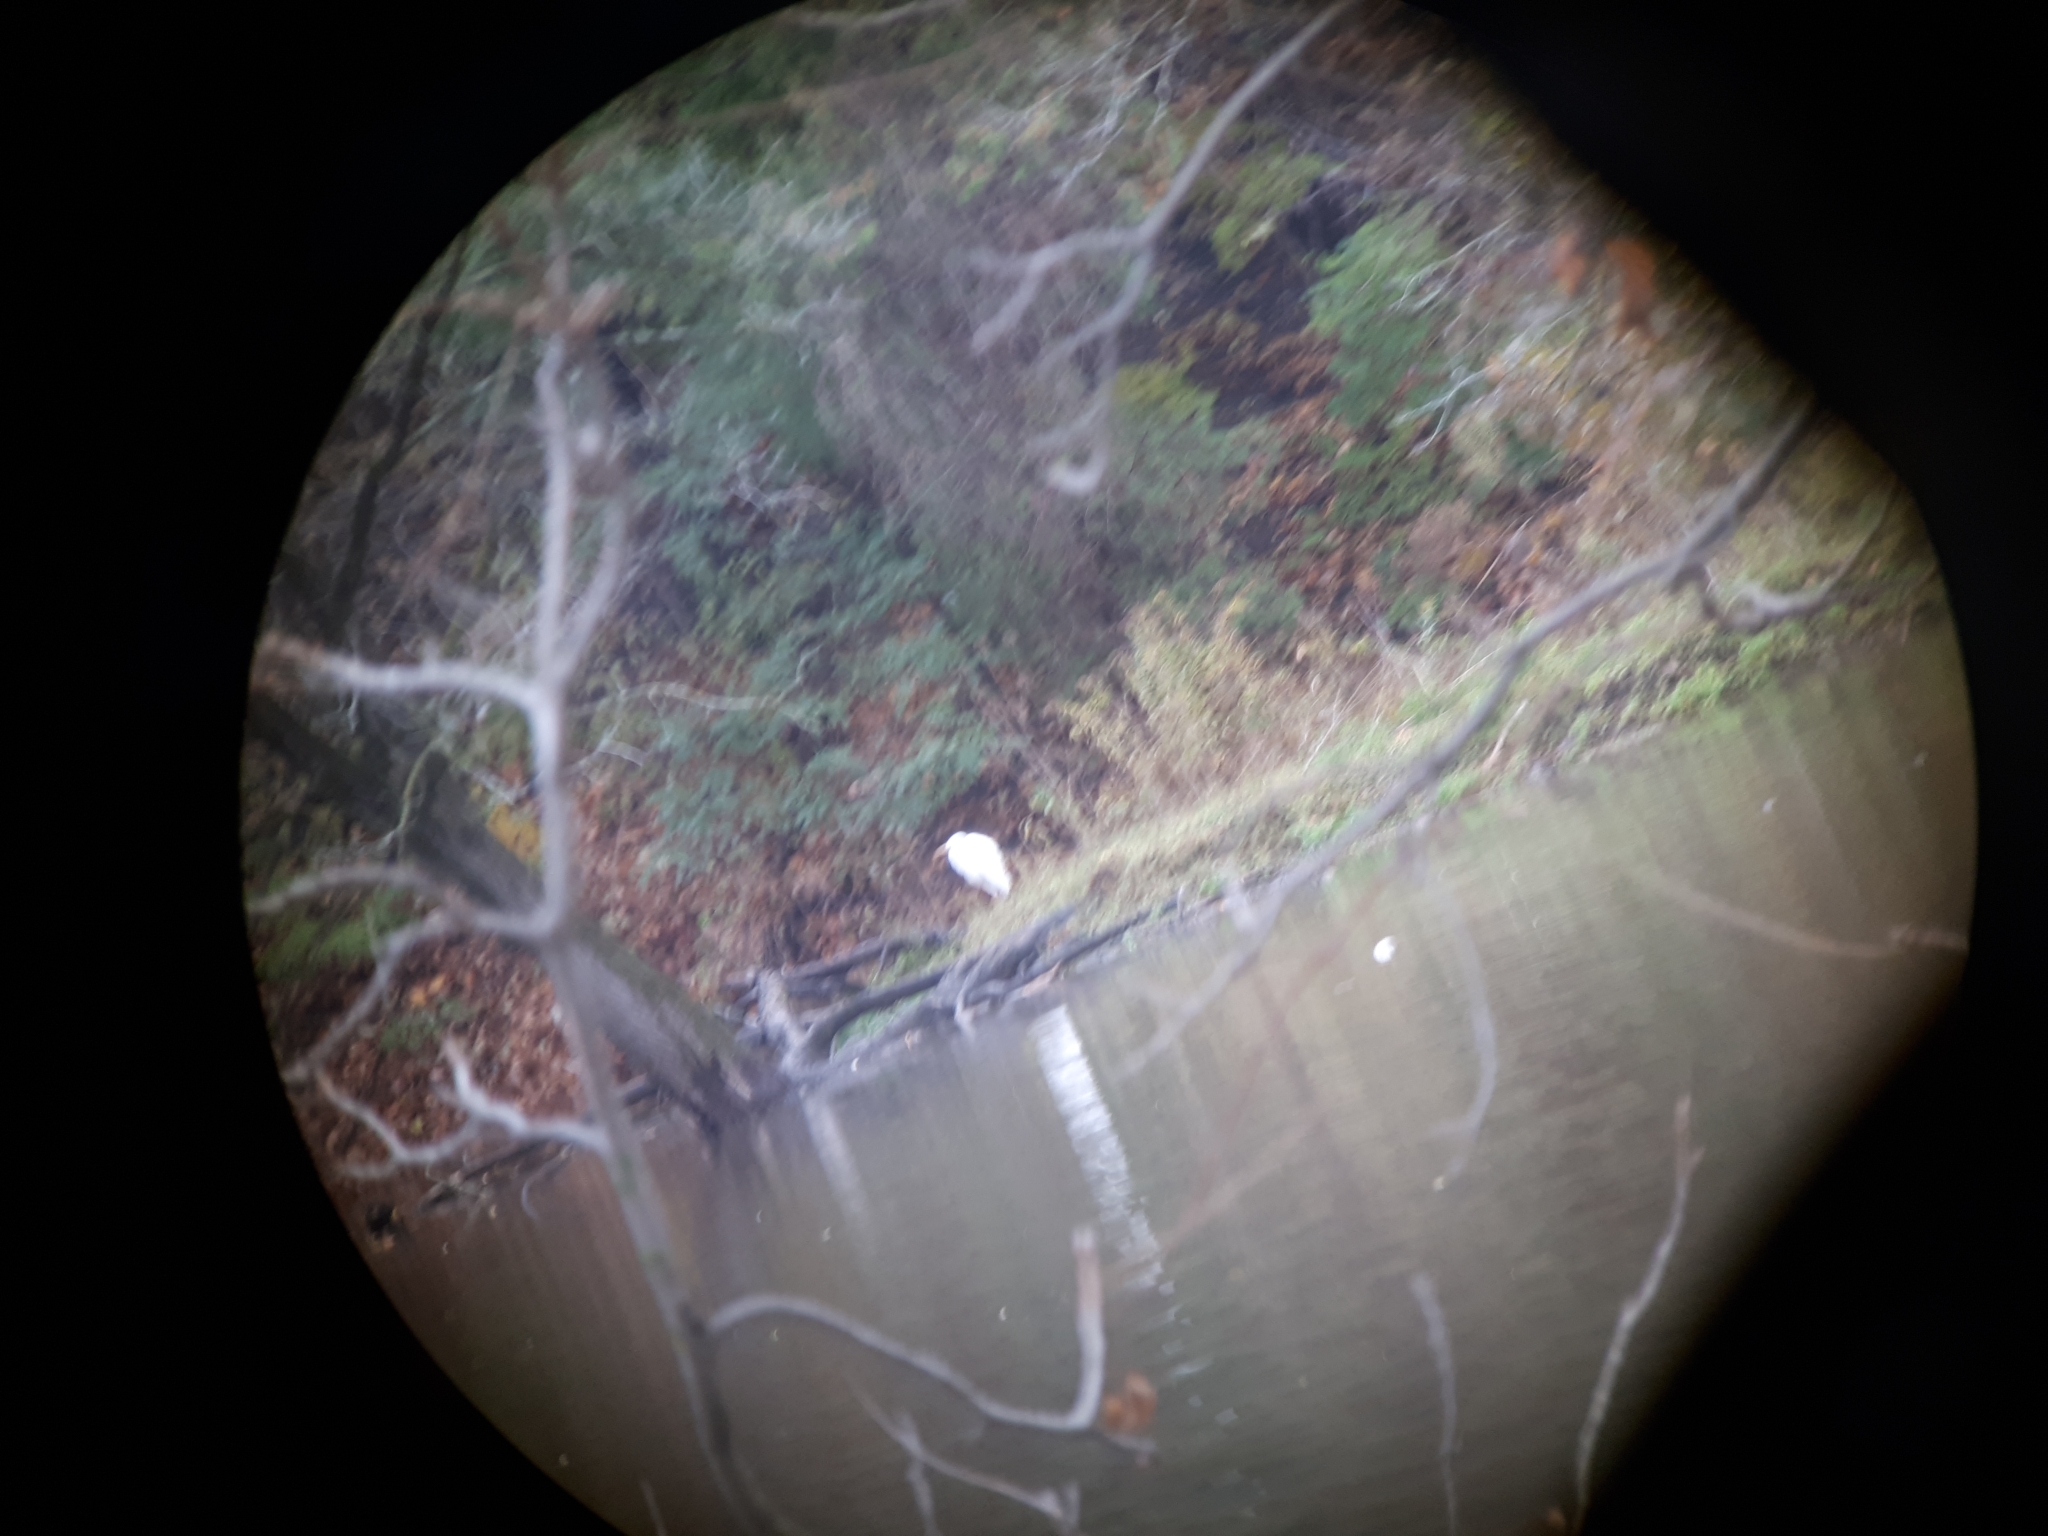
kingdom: Animalia
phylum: Chordata
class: Aves
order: Pelecaniformes
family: Ardeidae
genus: Ardea
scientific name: Ardea alba
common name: Great egret
